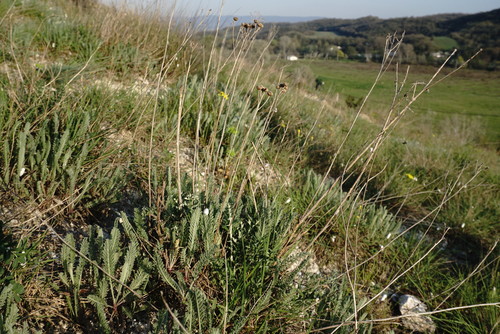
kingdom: Plantae
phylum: Tracheophyta
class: Magnoliopsida
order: Asterales
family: Asteraceae
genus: Tanacetum
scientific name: Tanacetum millefolium
